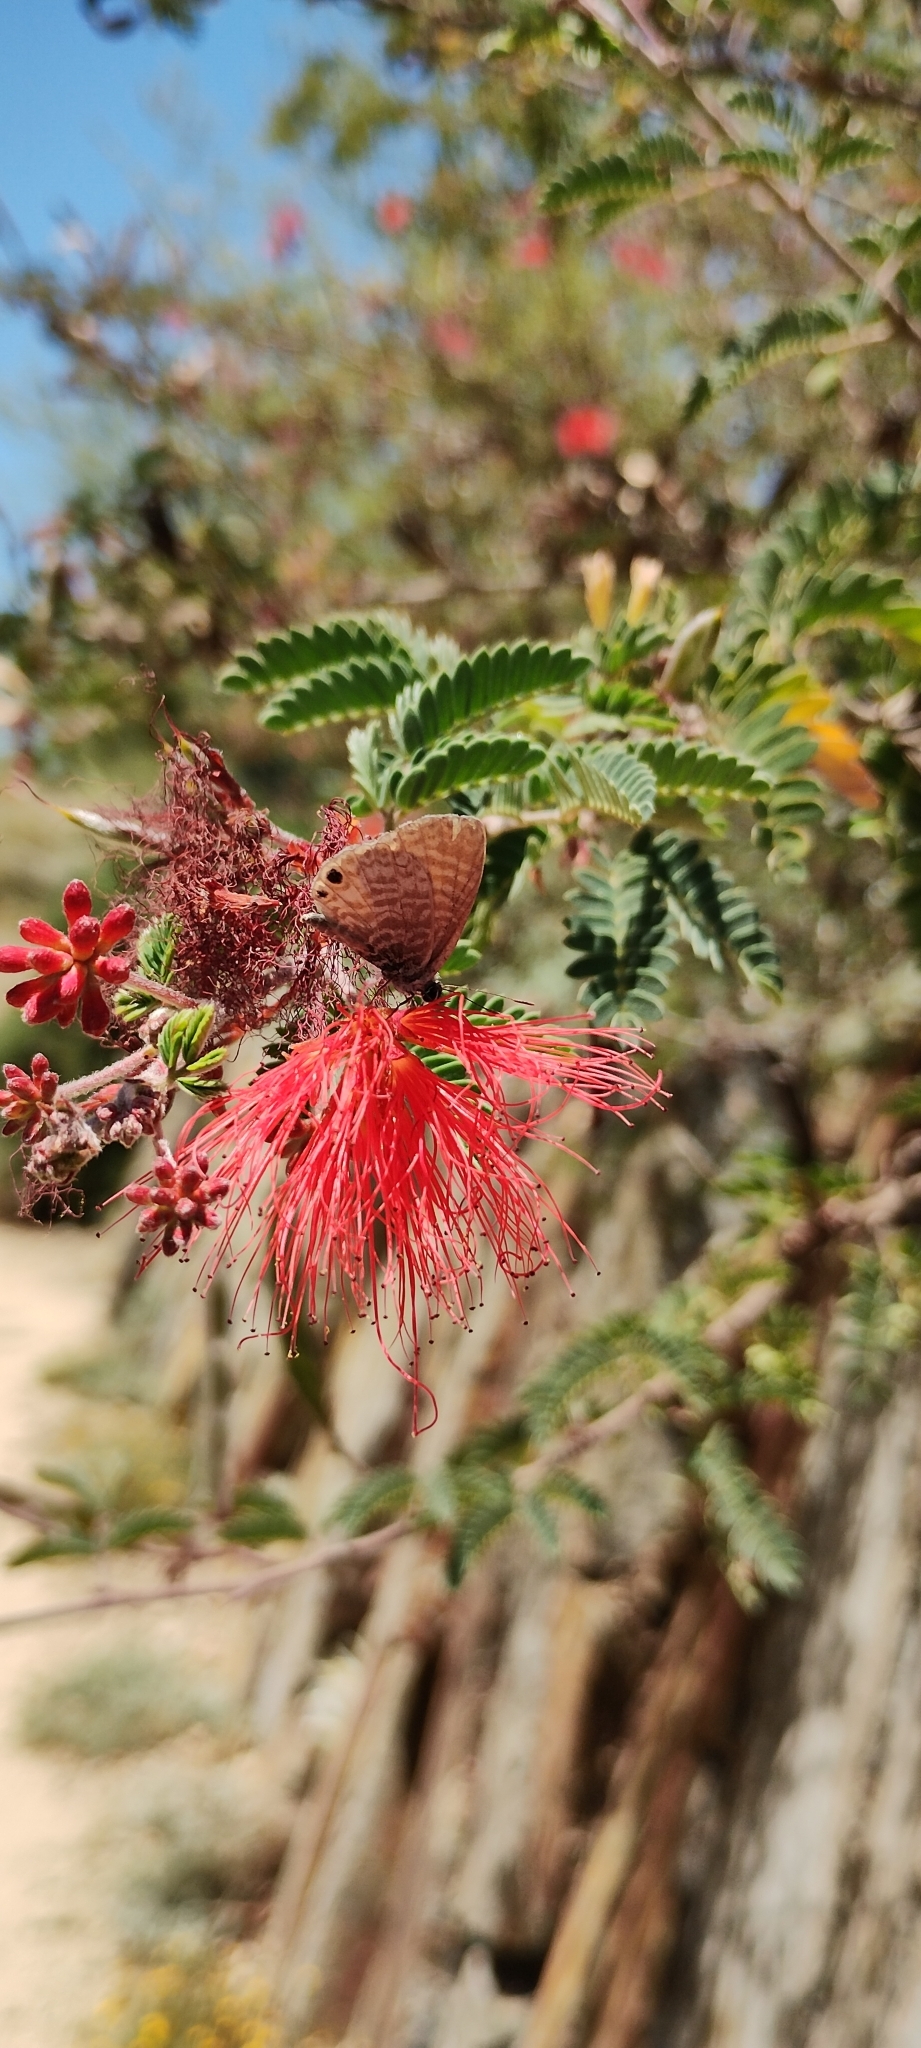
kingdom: Animalia
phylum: Arthropoda
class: Insecta
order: Lepidoptera
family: Lycaenidae
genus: Leptotes
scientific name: Leptotes marina
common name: Marine blue
